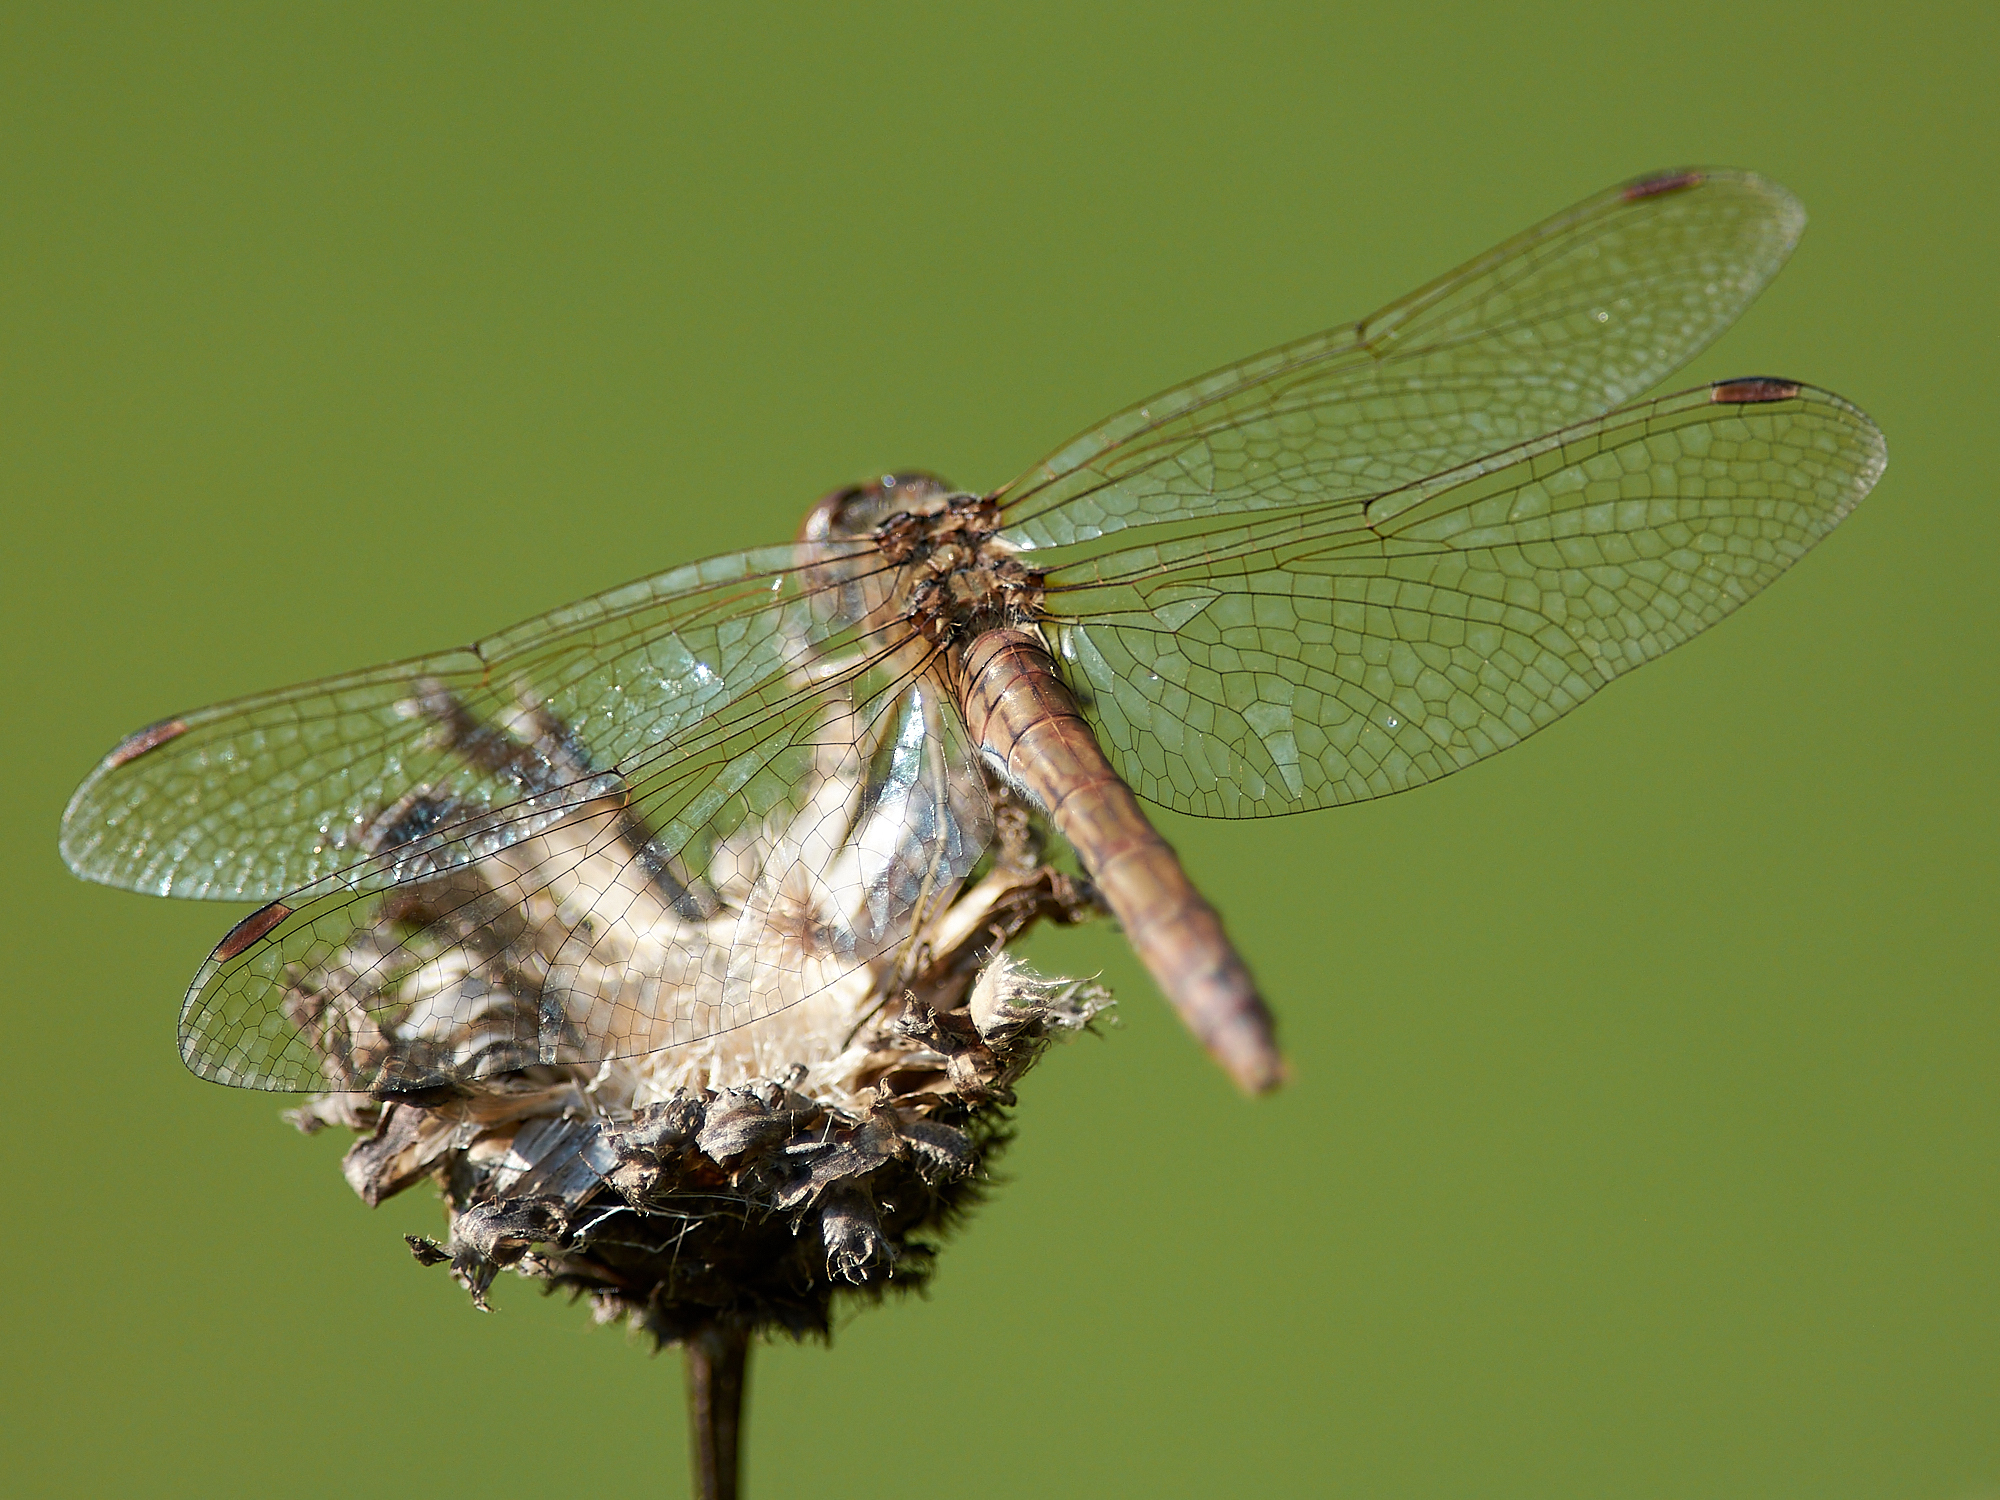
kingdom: Animalia
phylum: Arthropoda
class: Insecta
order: Odonata
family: Libellulidae
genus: Sympetrum
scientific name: Sympetrum vulgatum
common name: Vagrant darter
